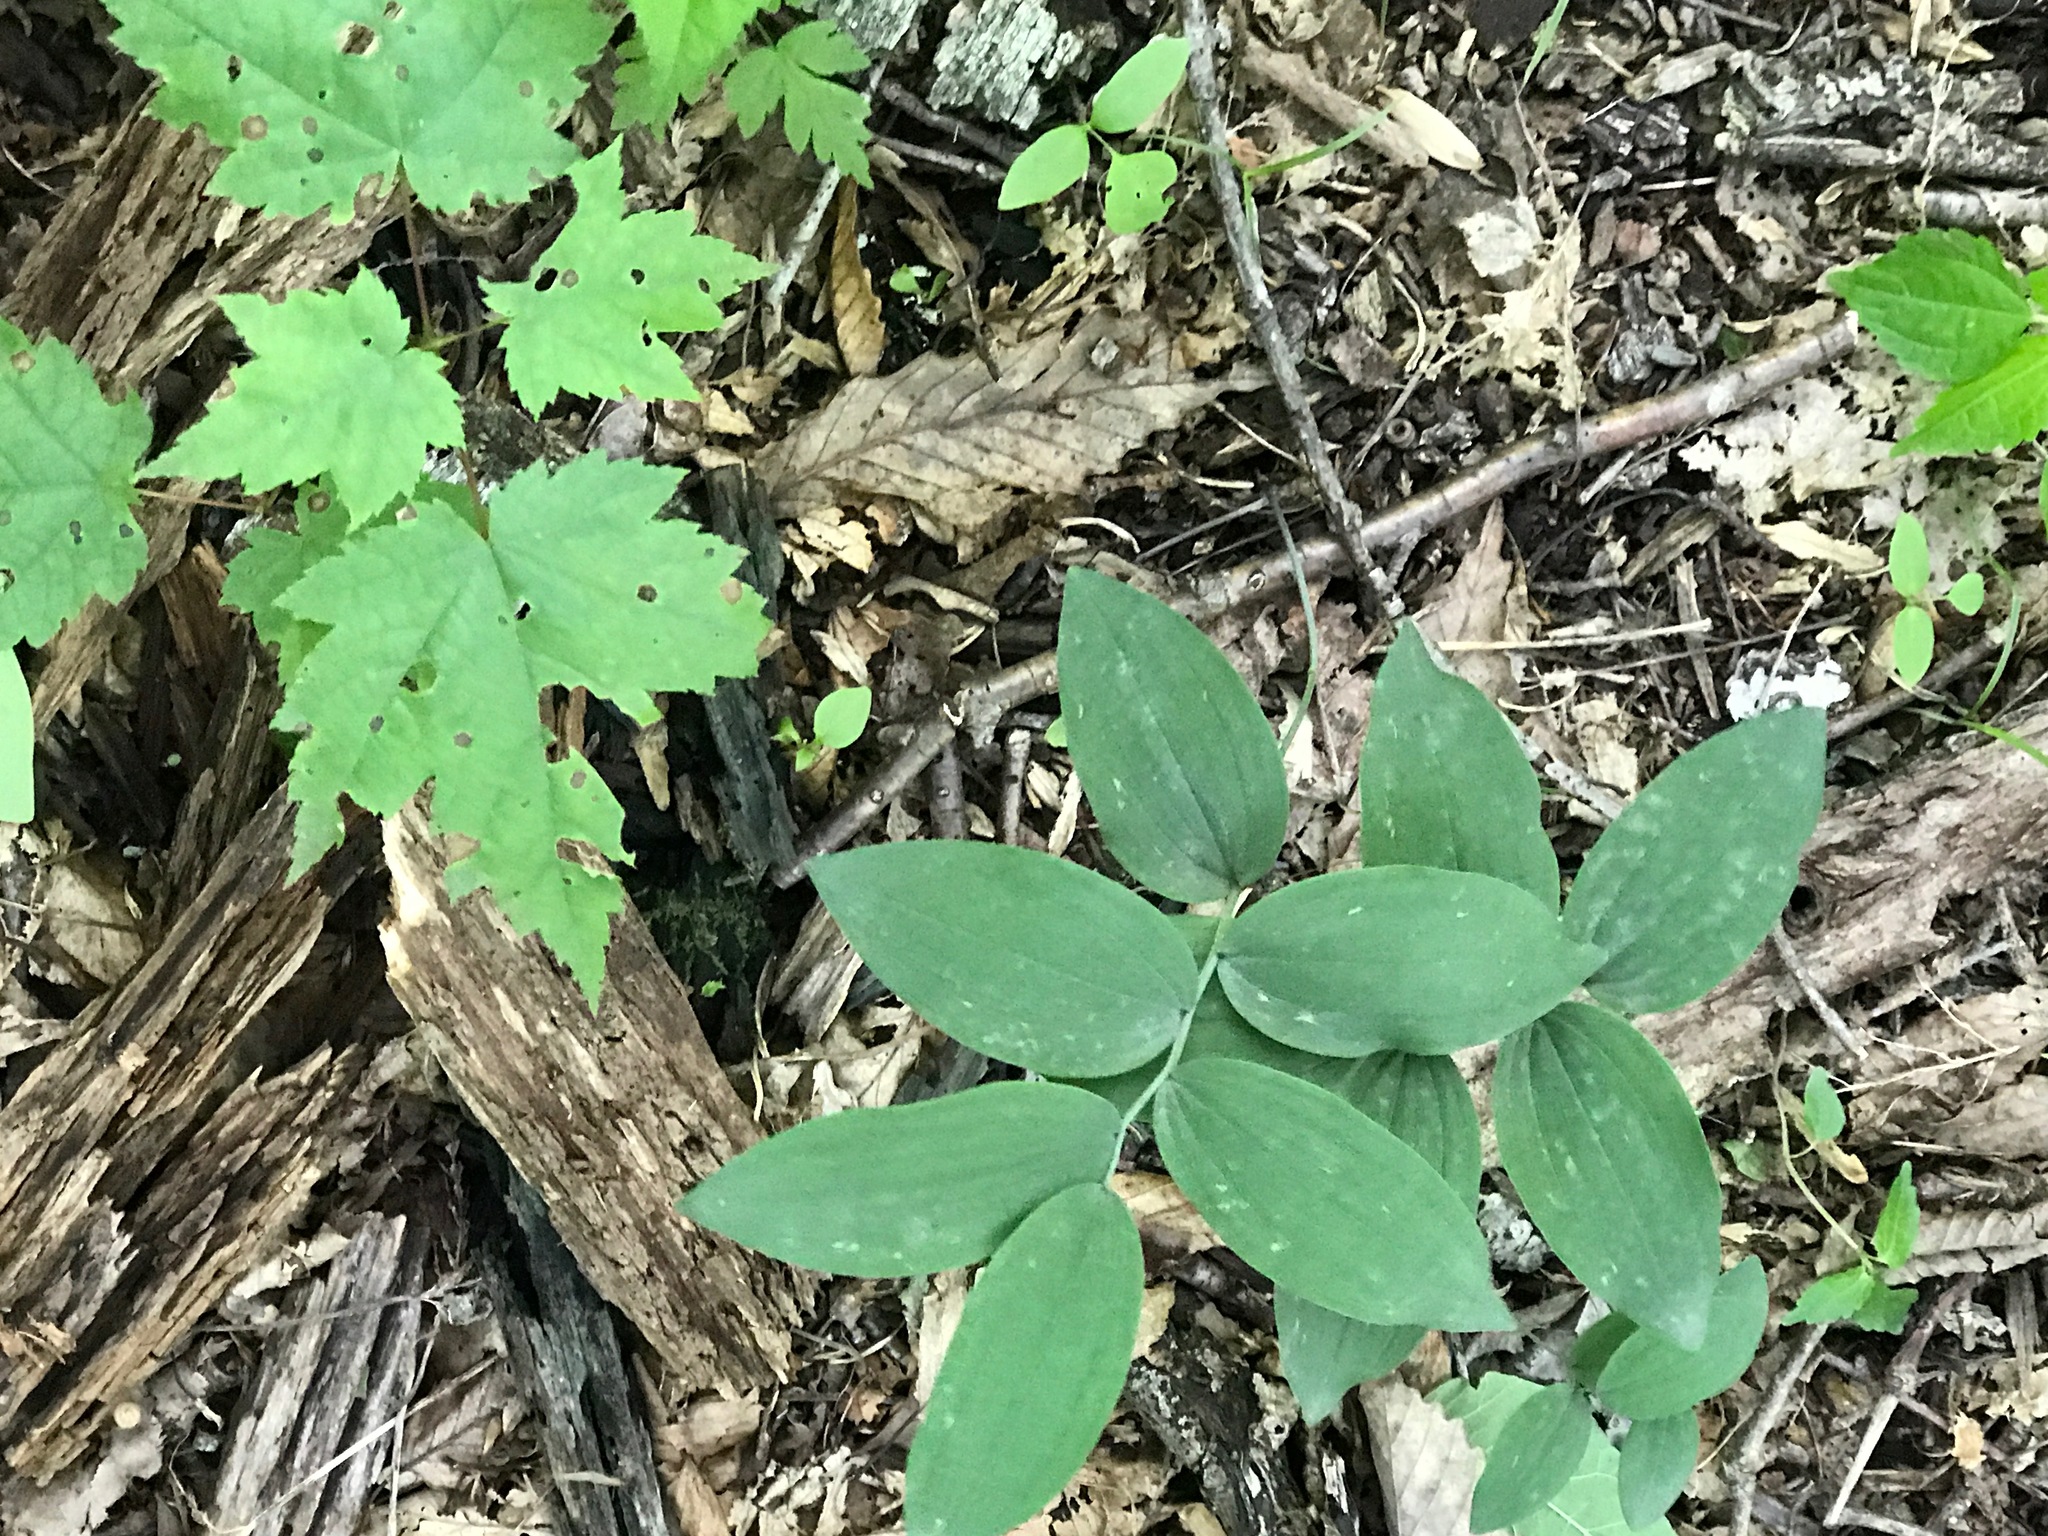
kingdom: Plantae
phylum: Tracheophyta
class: Liliopsida
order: Asparagales
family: Asparagaceae
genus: Polygonatum
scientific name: Polygonatum pubescens
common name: Downy solomon's seal
